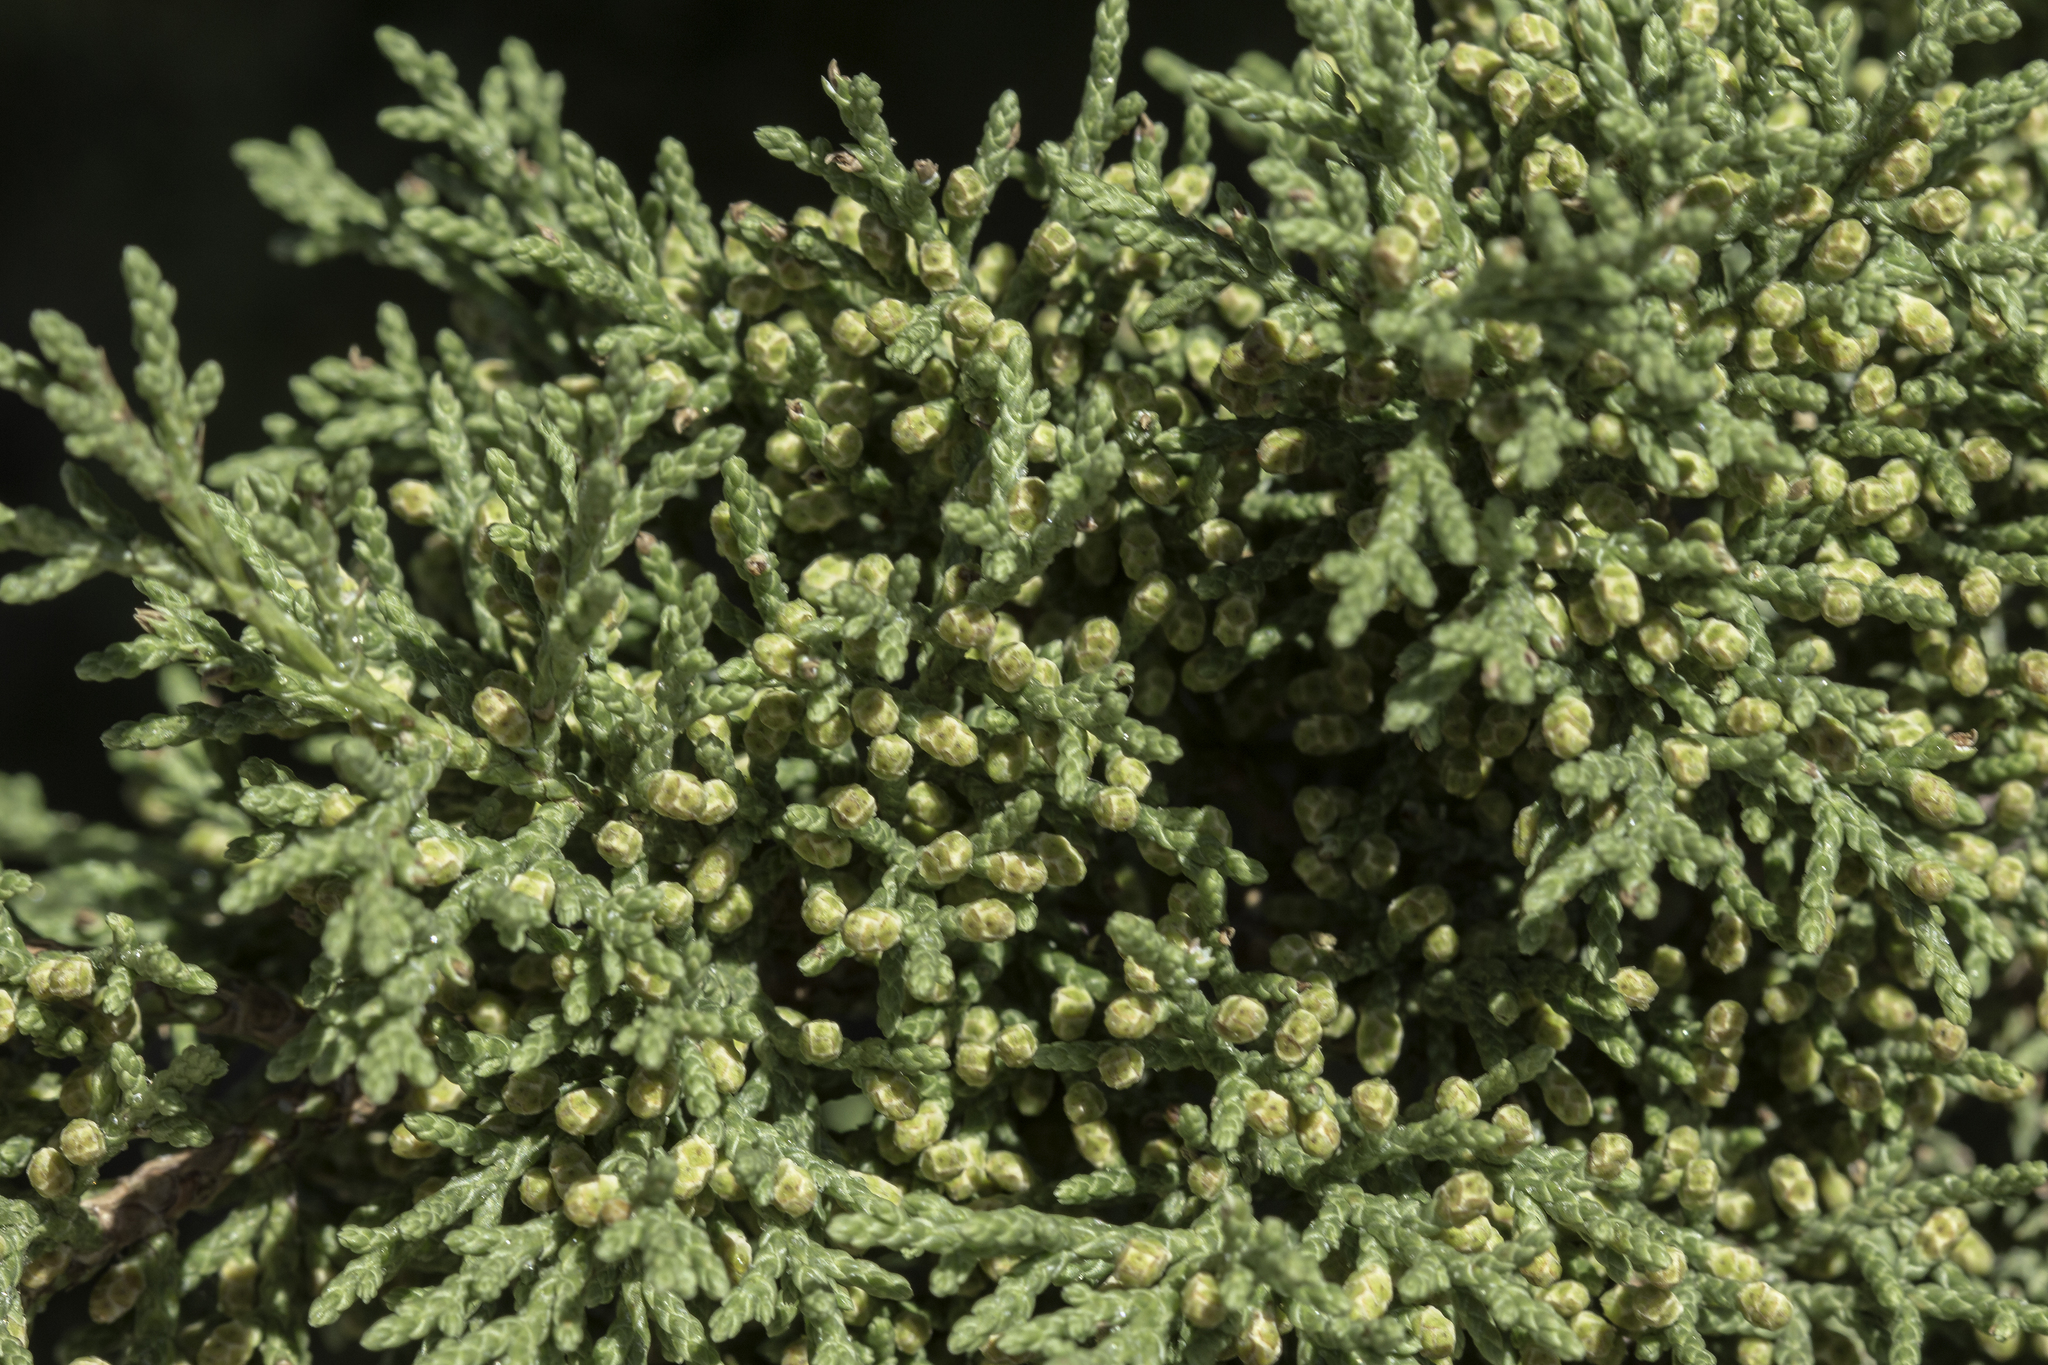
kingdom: Plantae
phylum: Tracheophyta
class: Pinopsida
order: Pinales
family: Cupressaceae
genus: Juniperus
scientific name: Juniperus arizonica
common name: Arizona juniper
